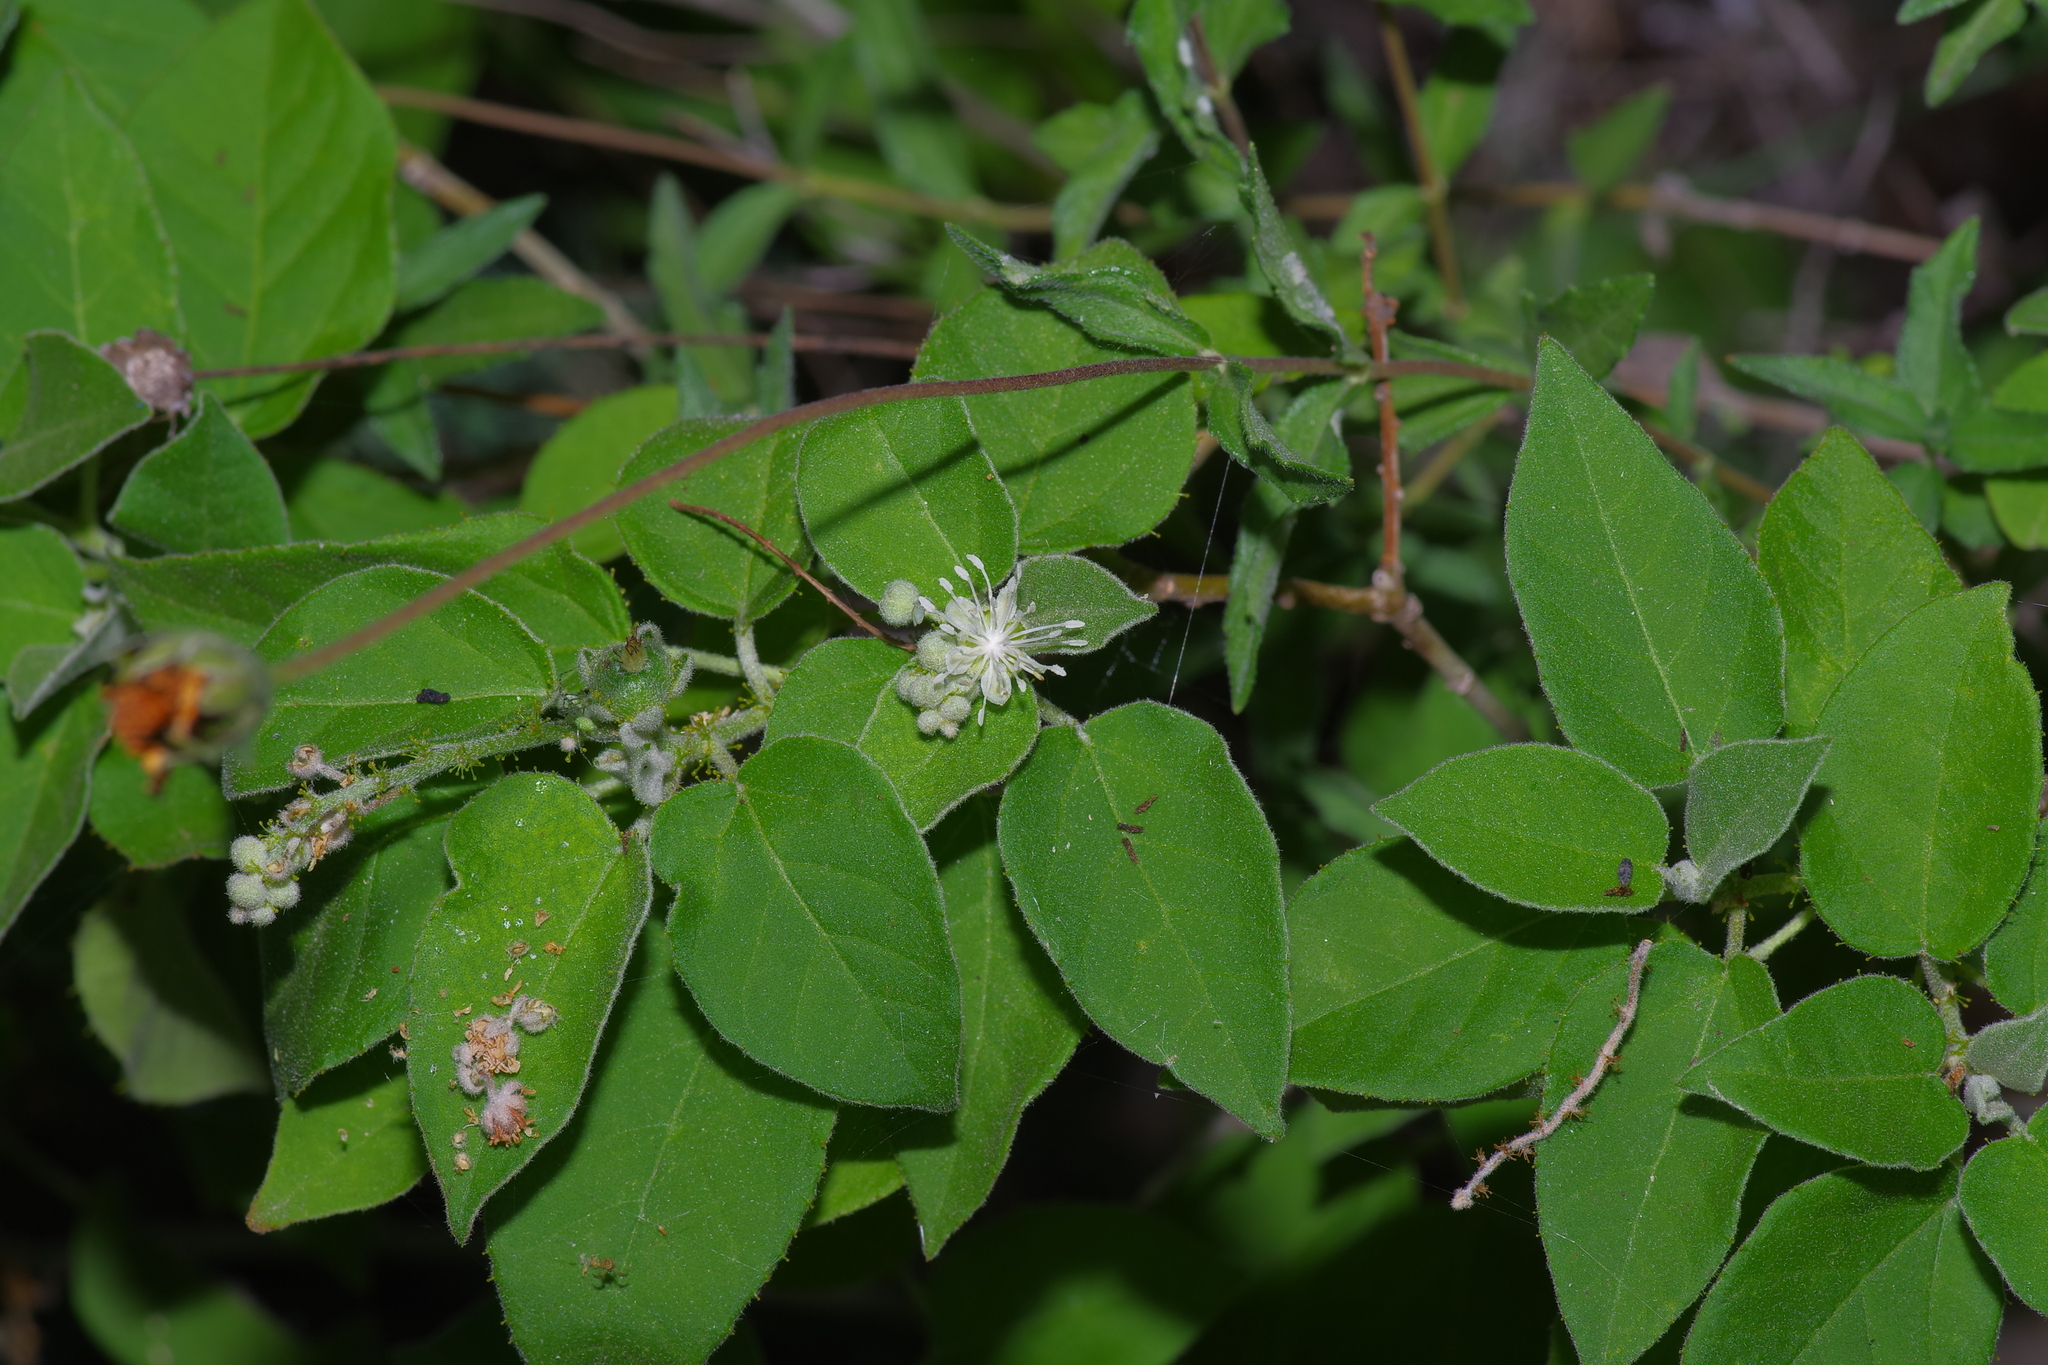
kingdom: Plantae
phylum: Tracheophyta
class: Magnoliopsida
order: Malpighiales
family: Euphorbiaceae
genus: Croton
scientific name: Croton ciliatoglandulifer
